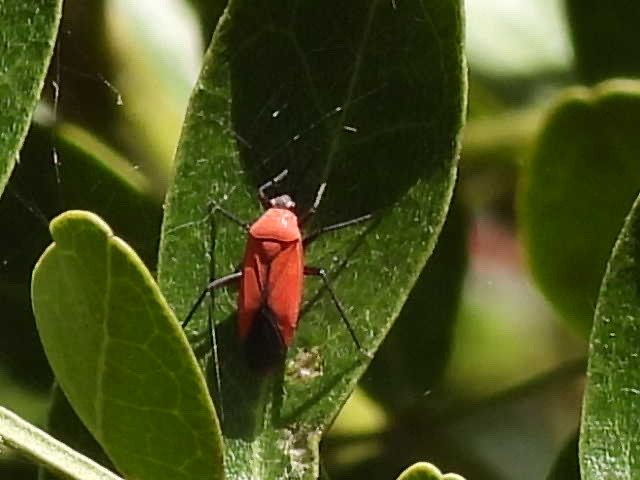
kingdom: Animalia
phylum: Arthropoda
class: Insecta
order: Hemiptera
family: Miridae
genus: Lopidea
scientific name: Lopidea major
